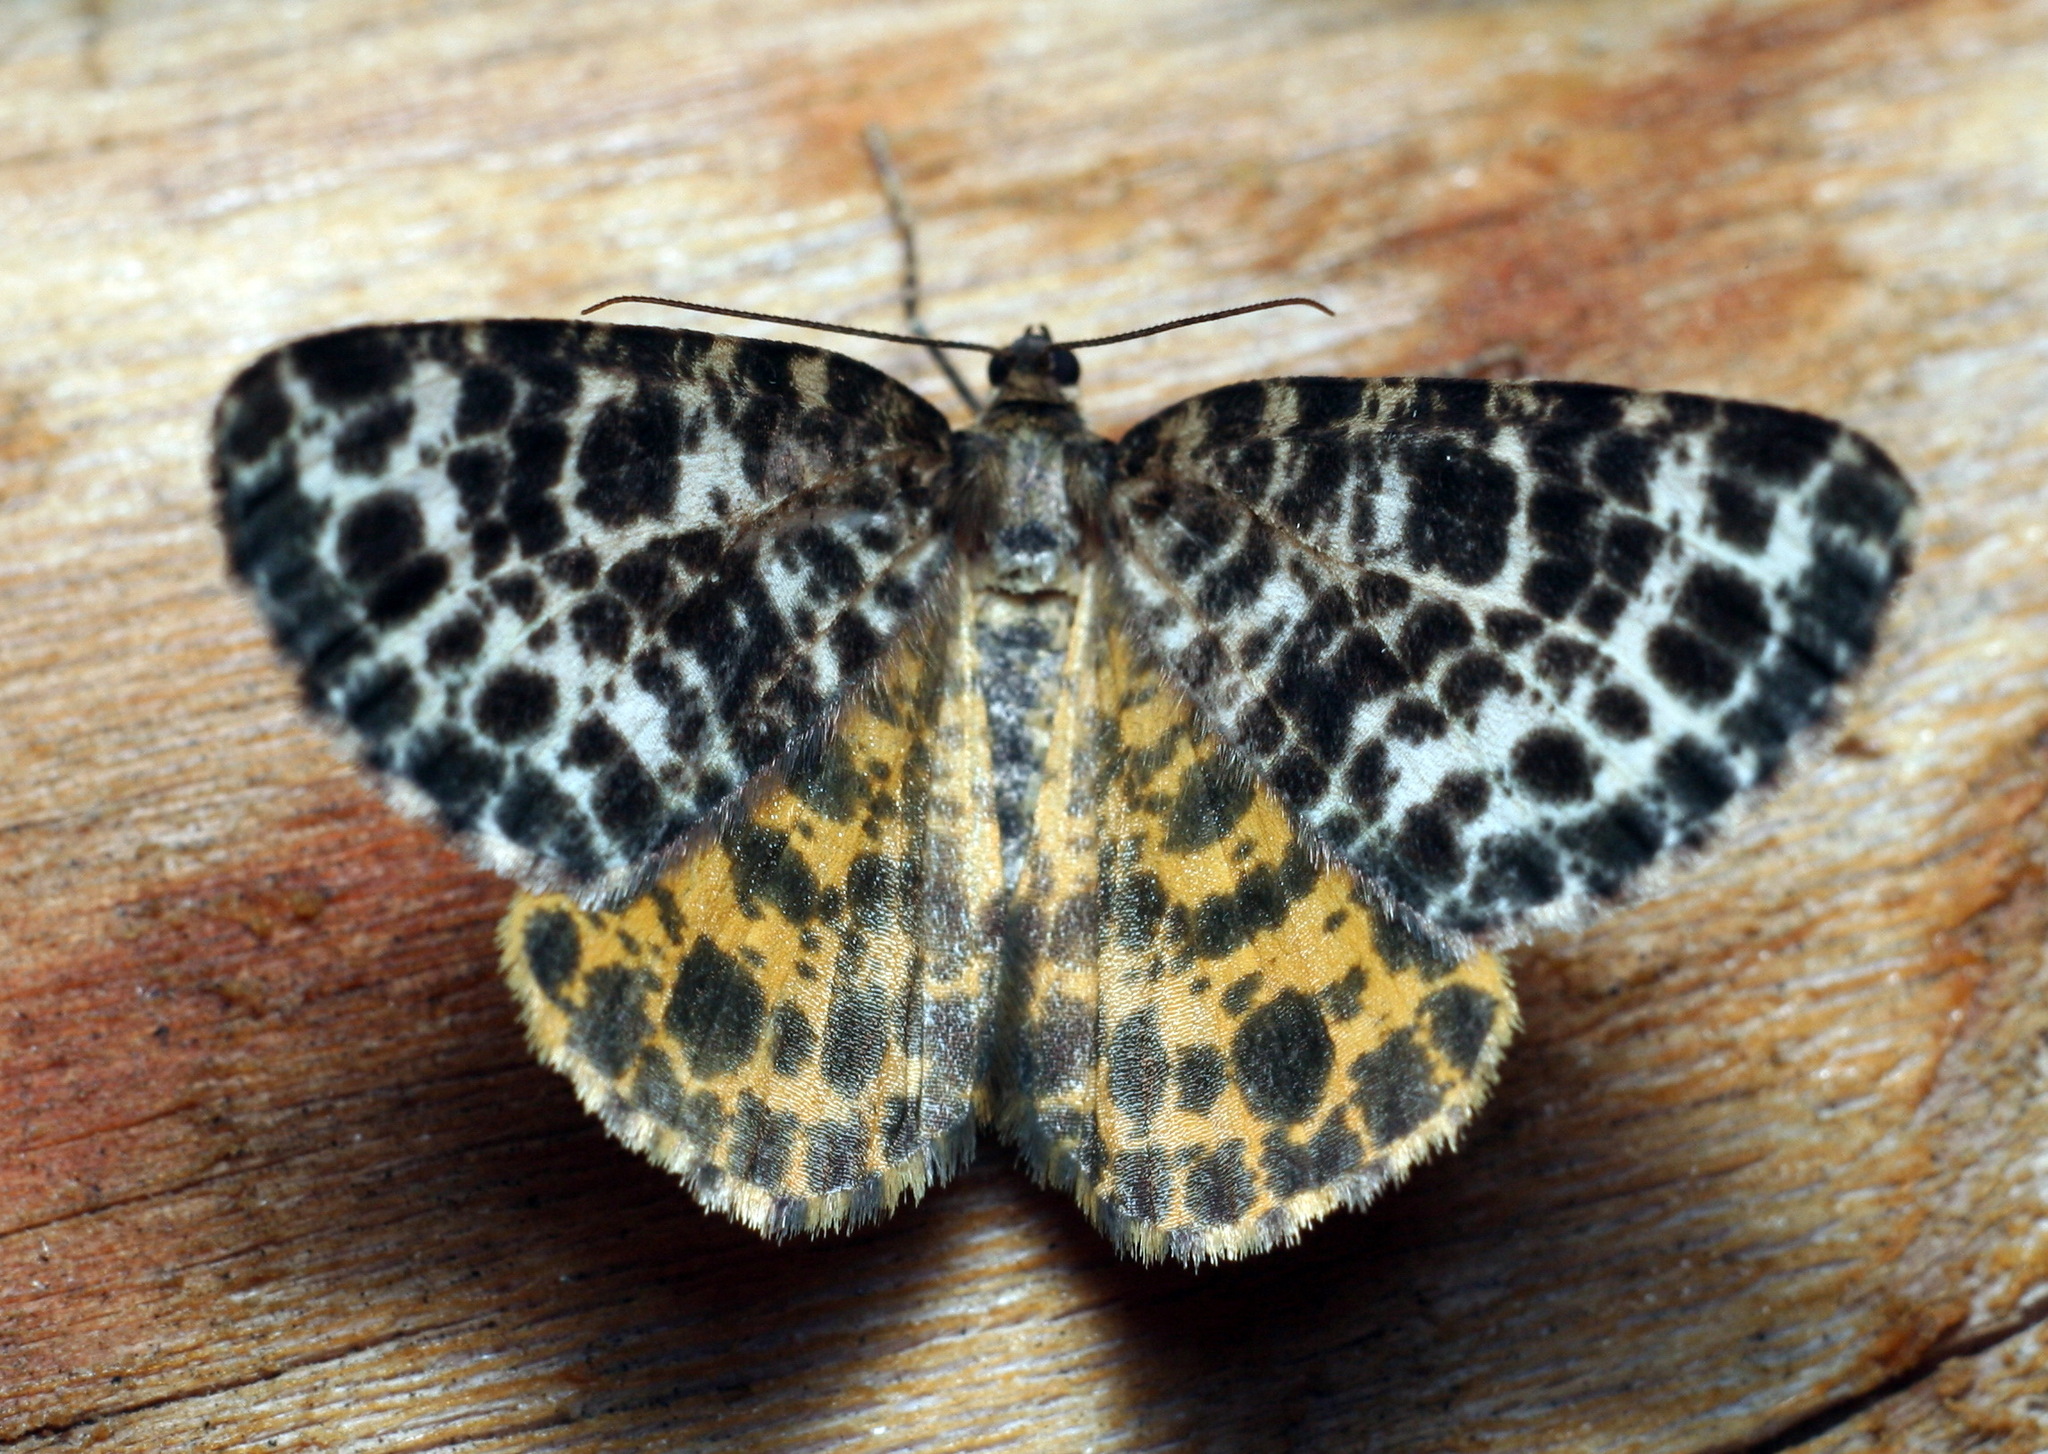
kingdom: Animalia
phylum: Arthropoda
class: Insecta
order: Lepidoptera
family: Geometridae
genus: Arichanna
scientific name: Arichanna melanaria
